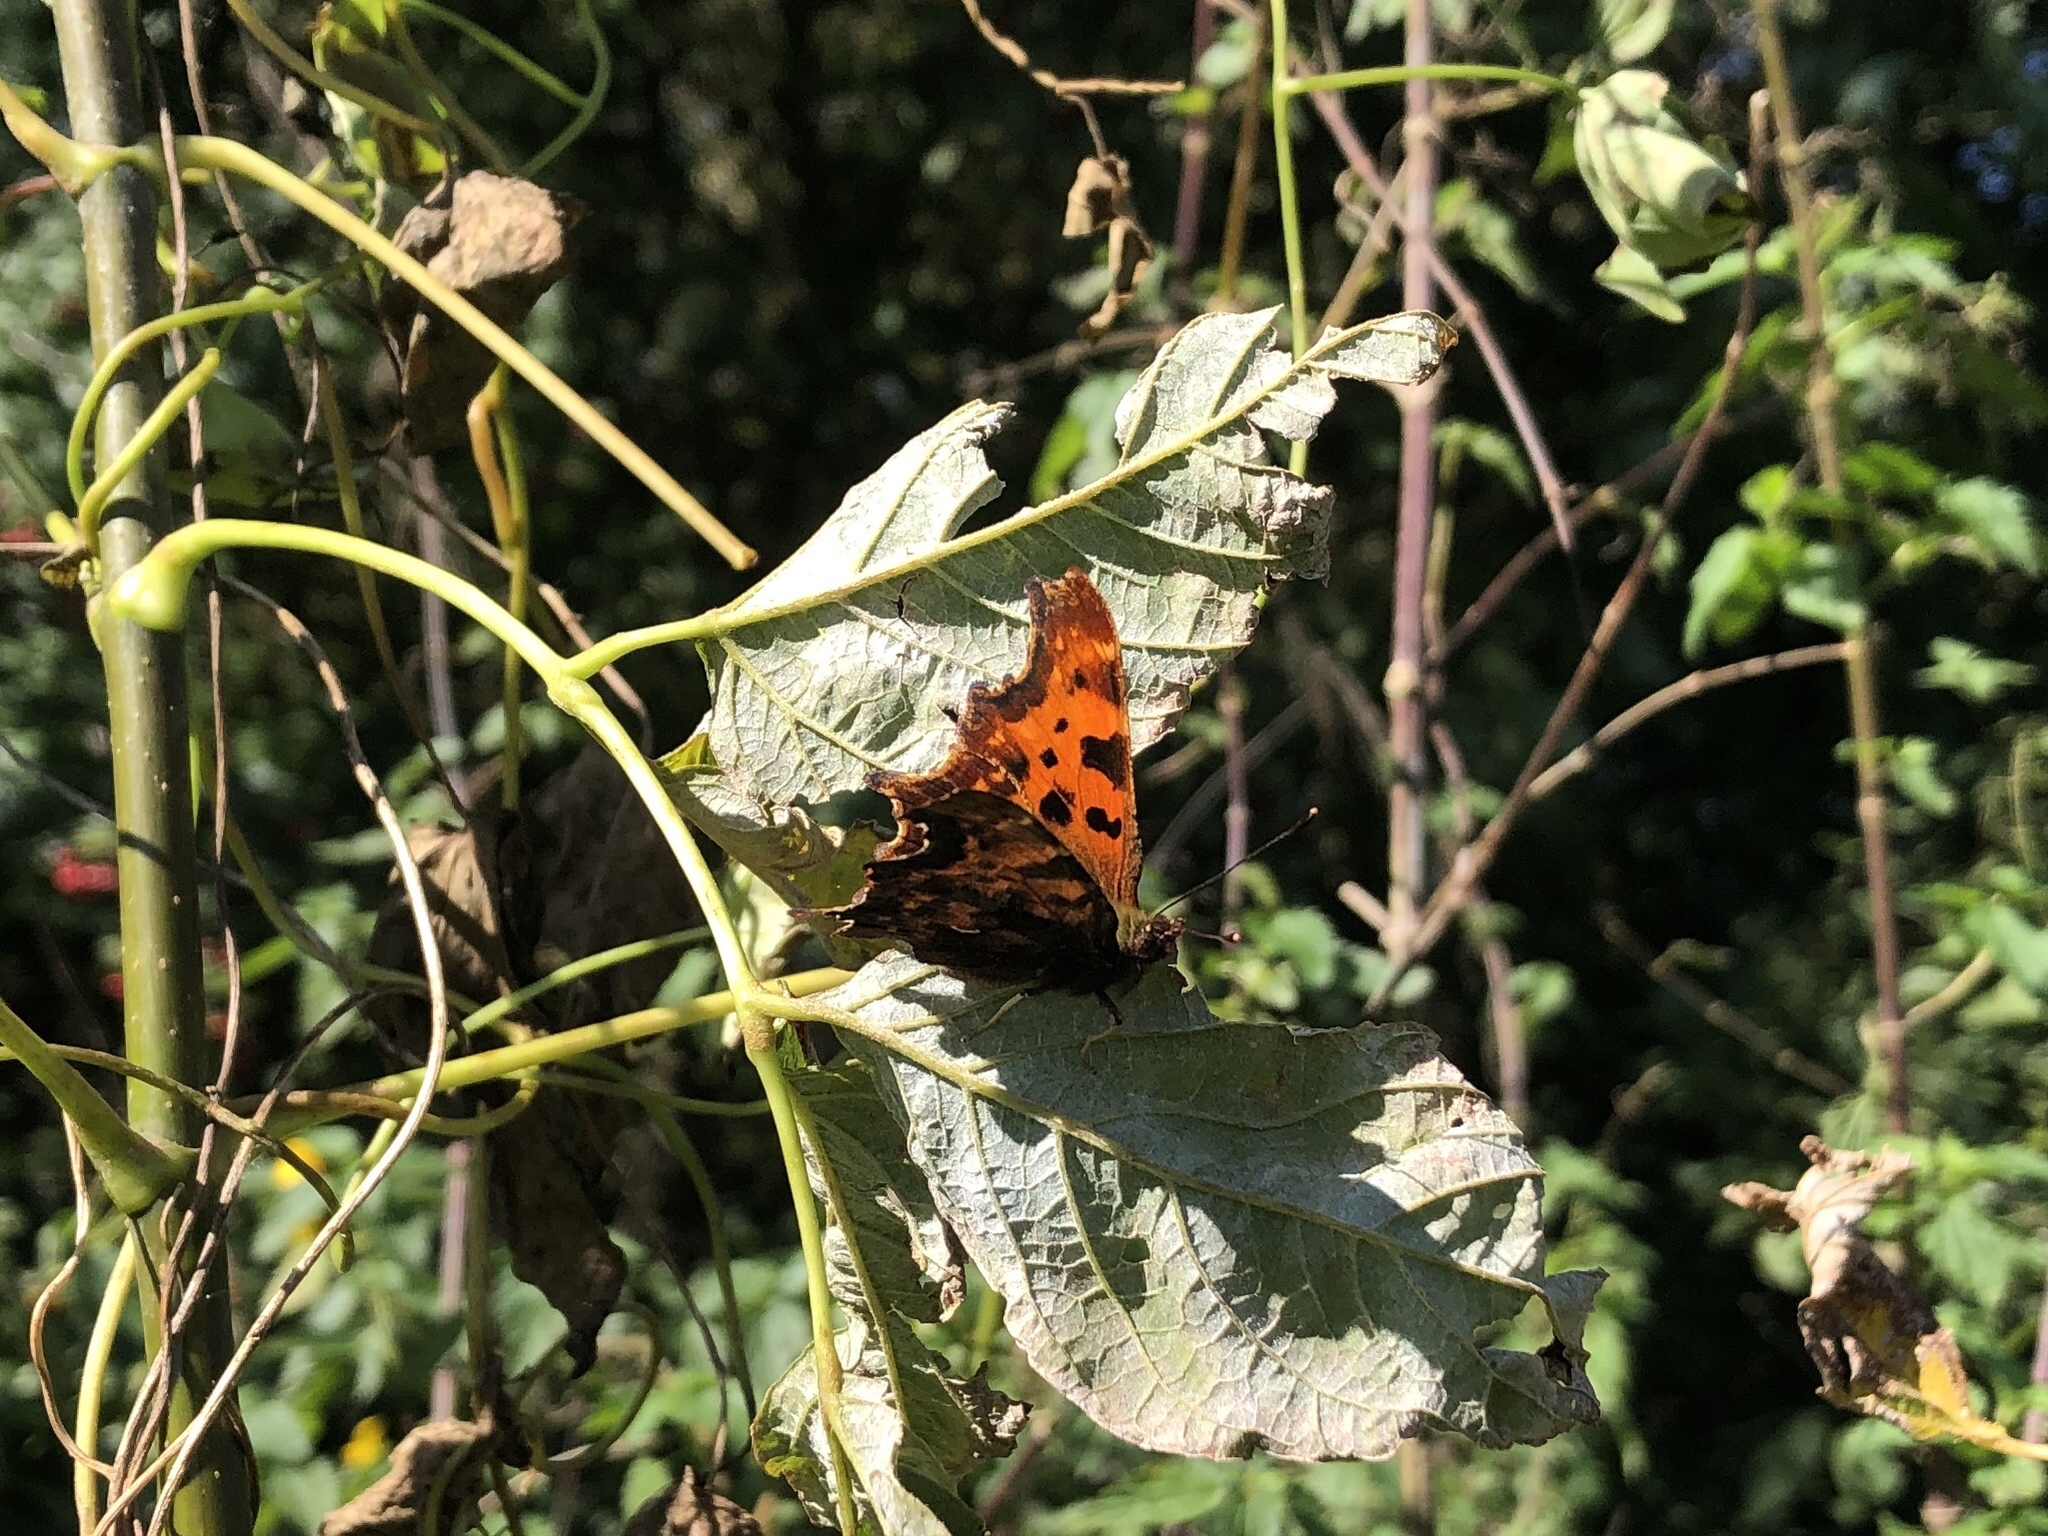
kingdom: Animalia
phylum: Arthropoda
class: Insecta
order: Lepidoptera
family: Nymphalidae
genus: Polygonia
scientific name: Polygonia c-album
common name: Comma
